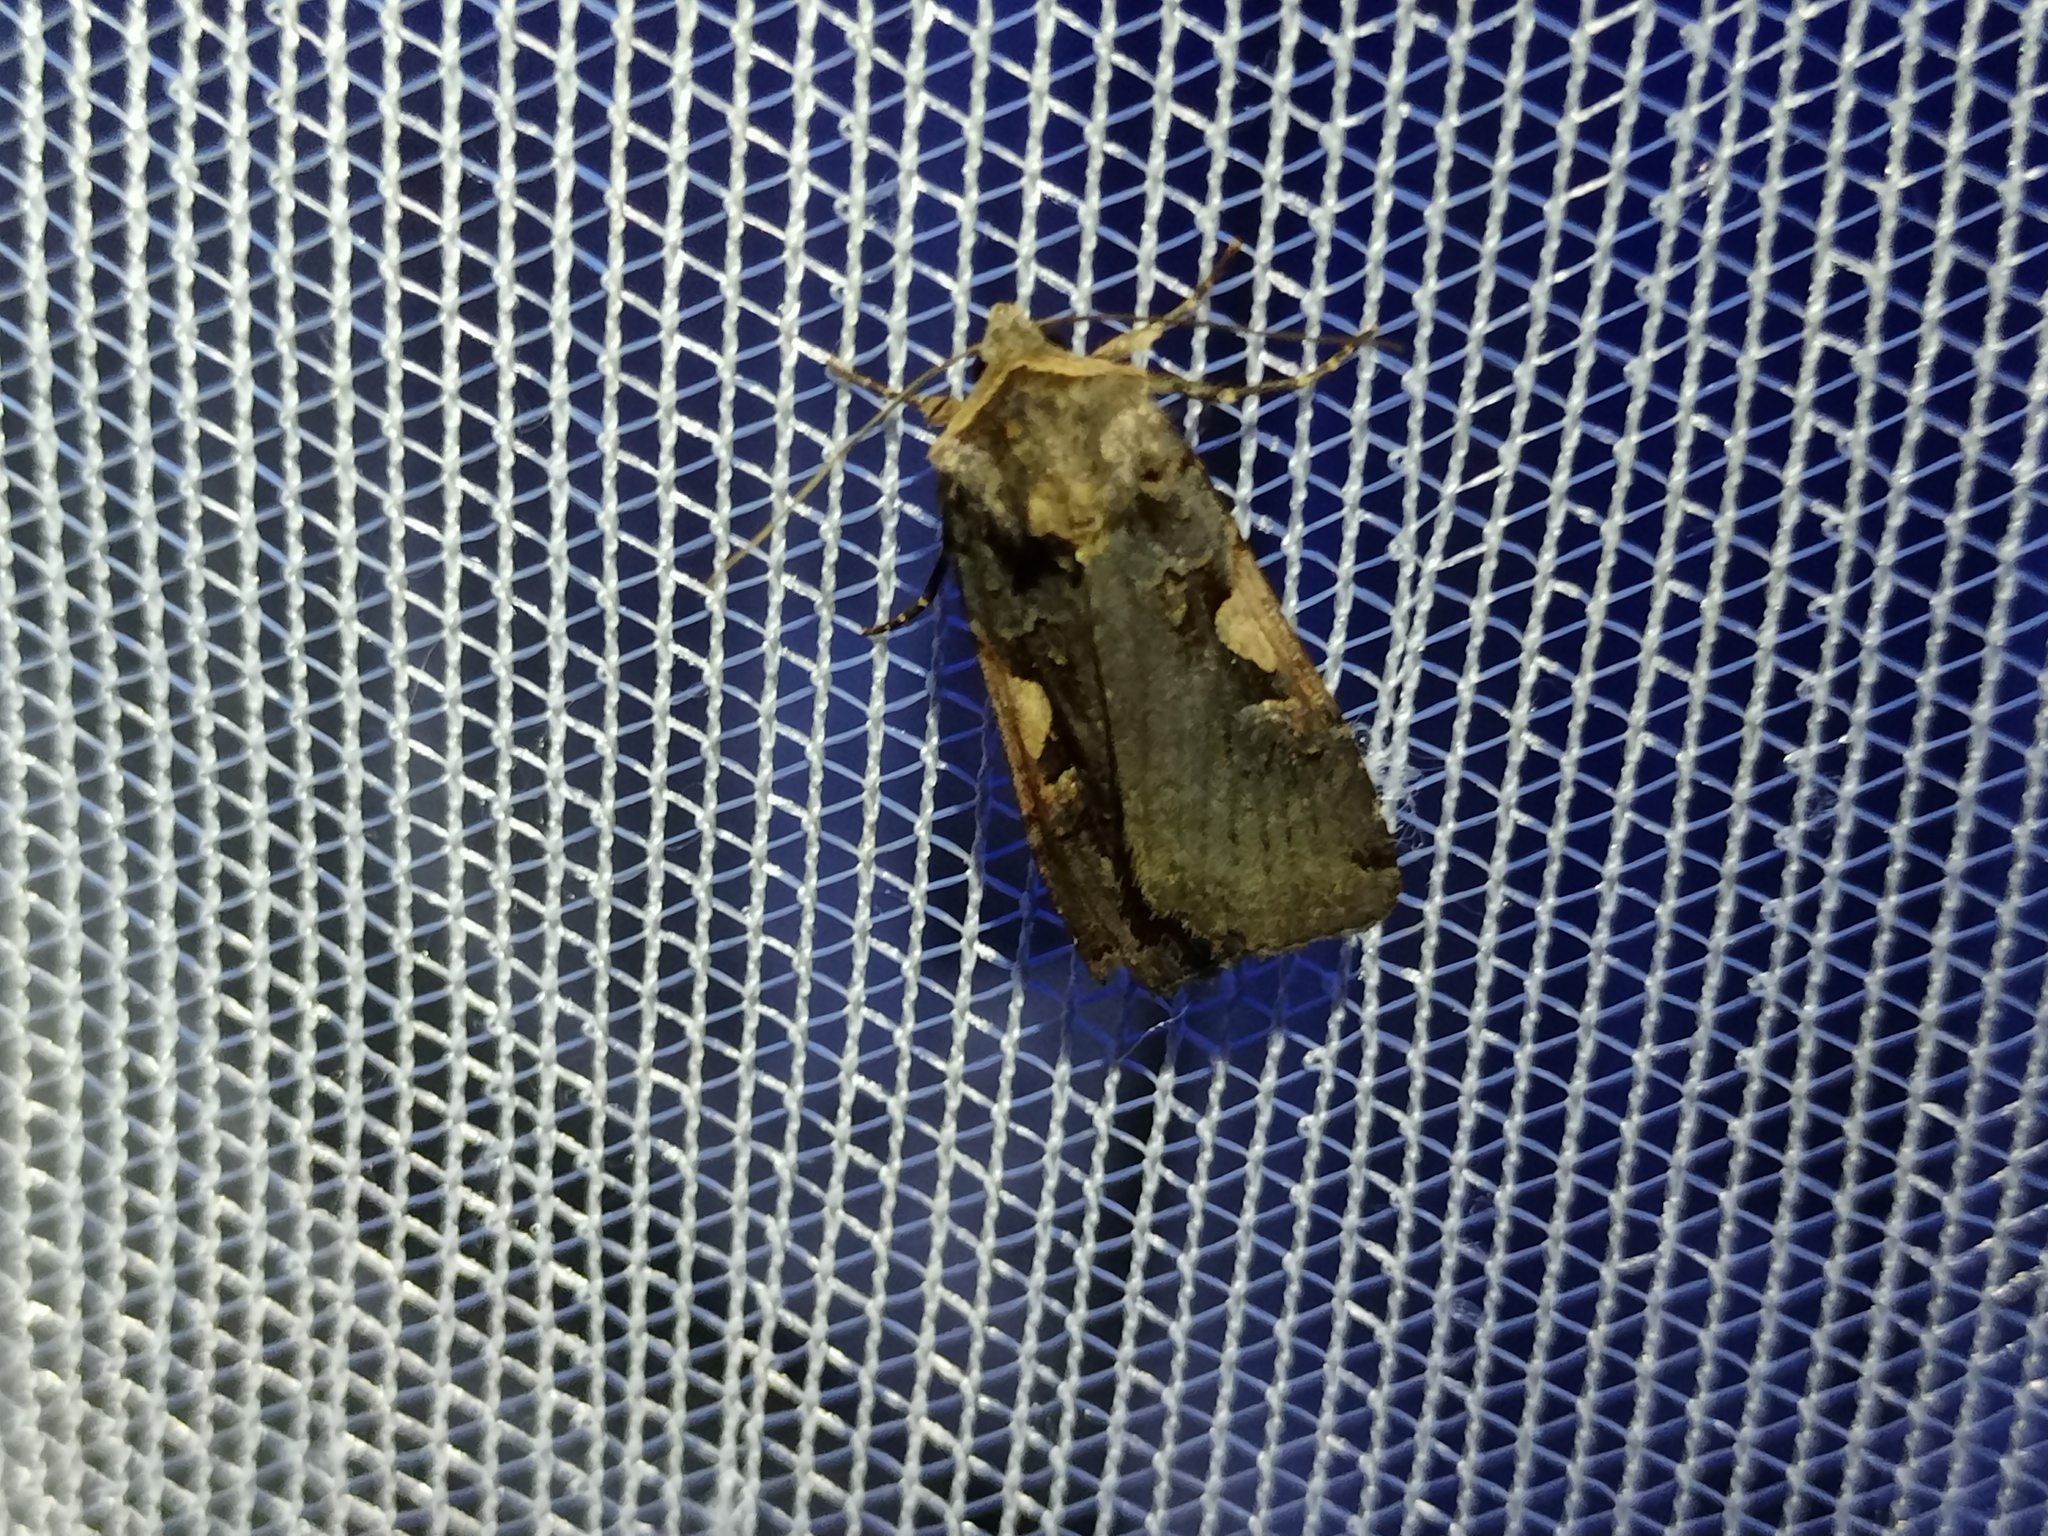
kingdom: Animalia
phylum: Arthropoda
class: Insecta
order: Lepidoptera
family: Noctuidae
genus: Xestia
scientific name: Xestia c-nigrum
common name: Setaceous hebrew character
